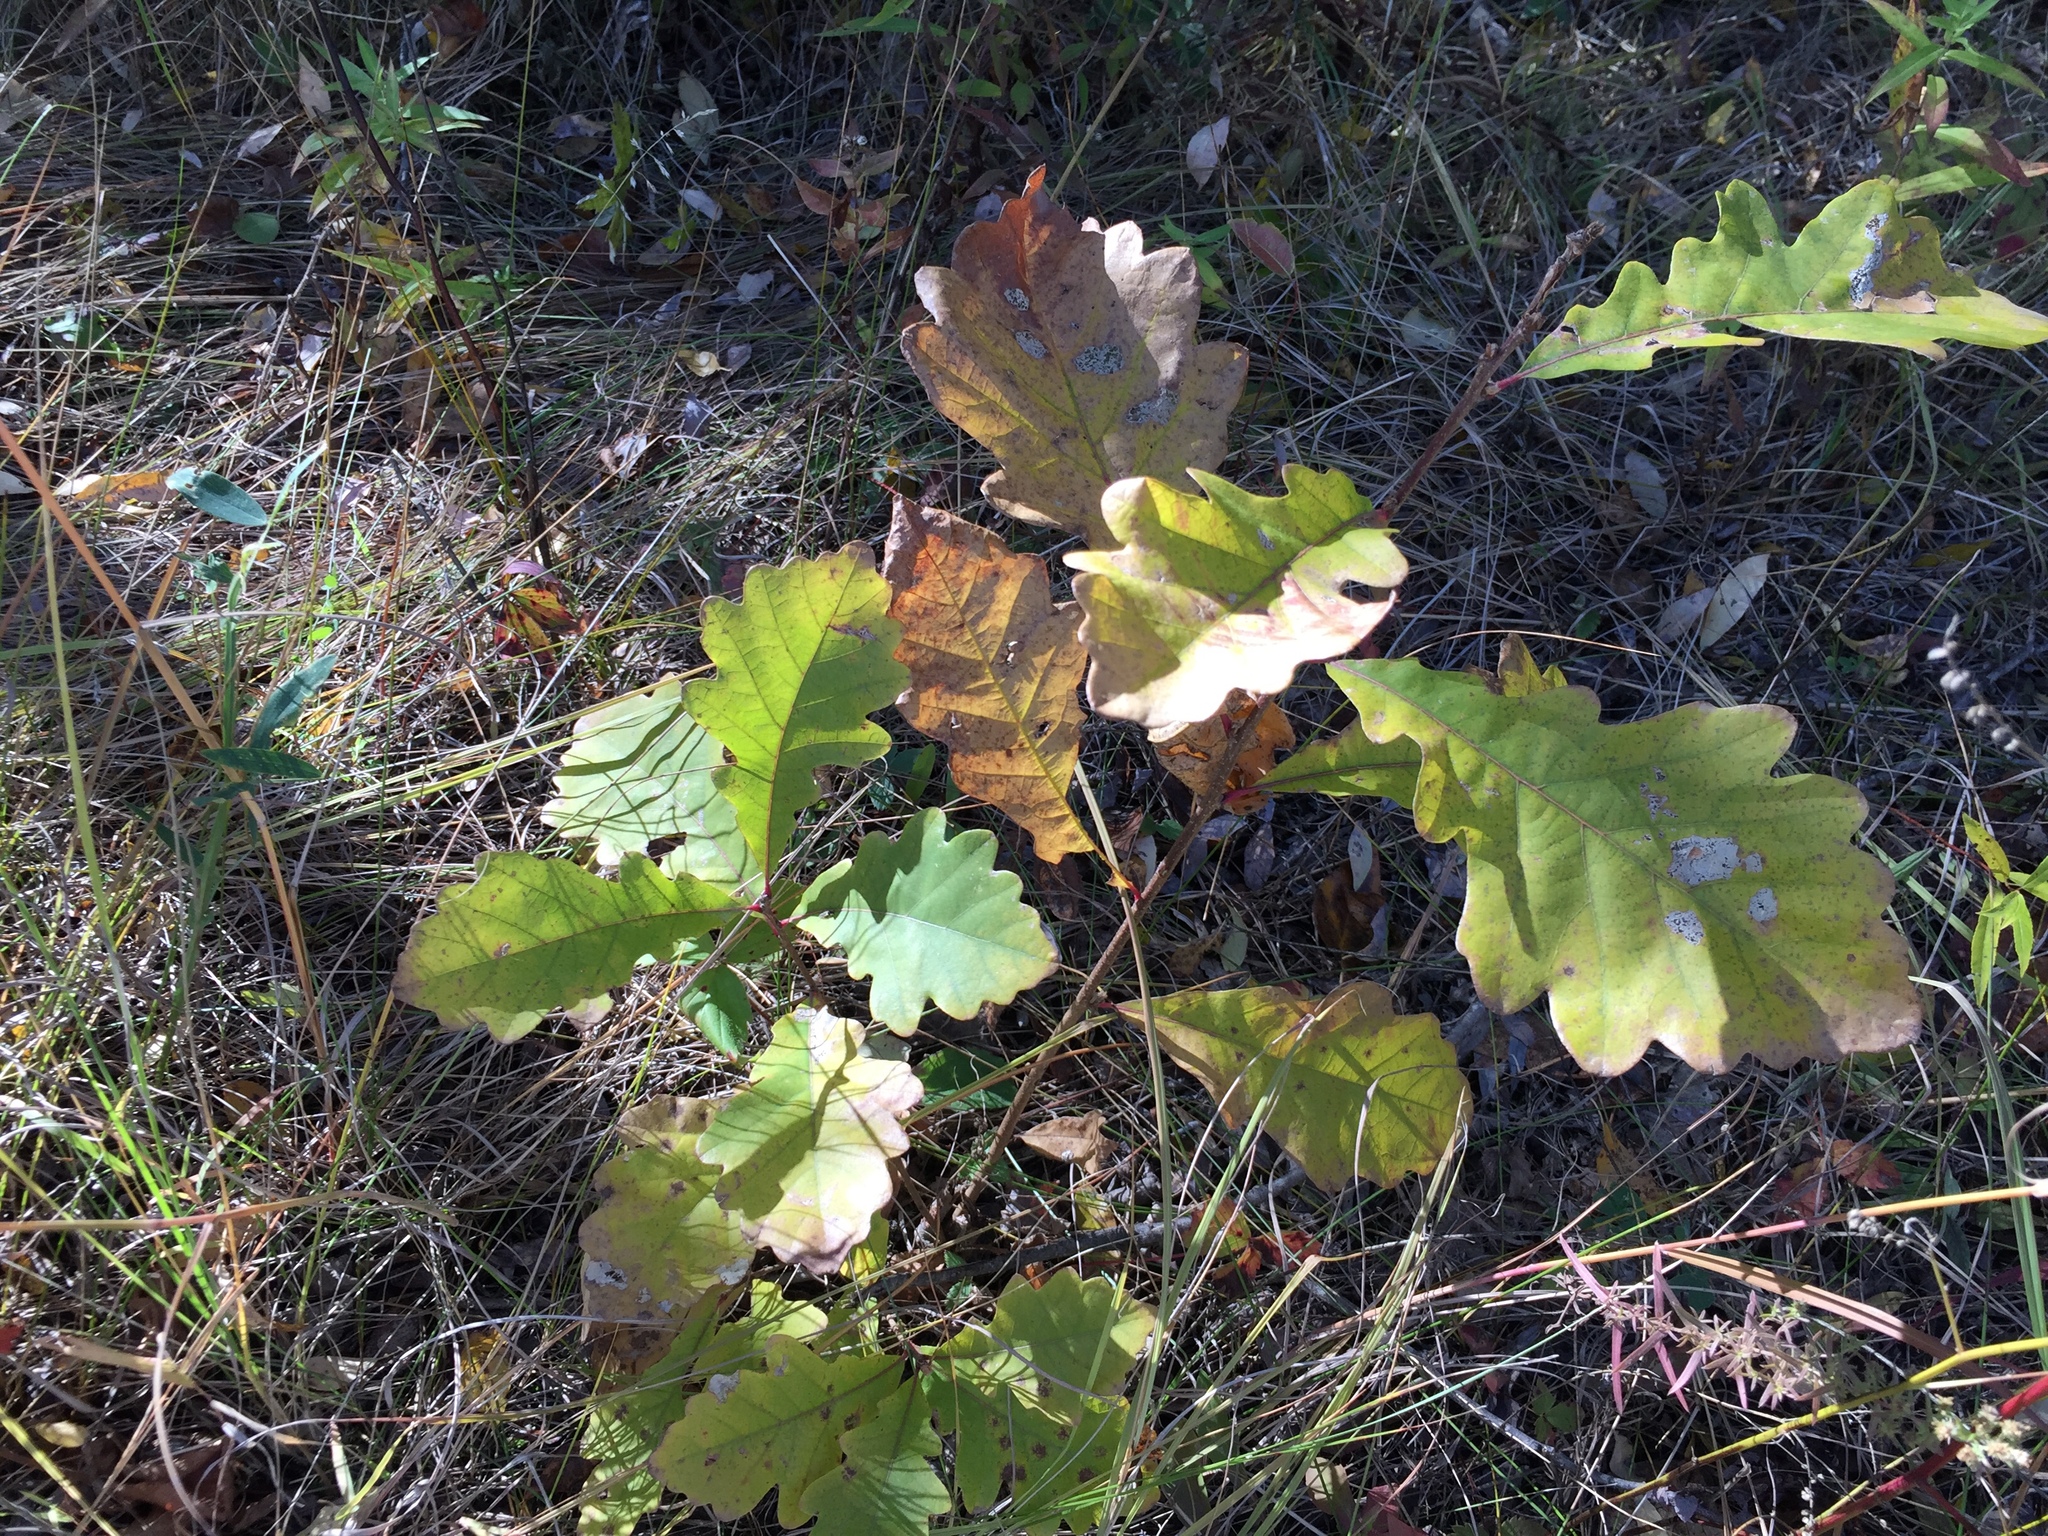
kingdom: Plantae
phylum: Tracheophyta
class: Magnoliopsida
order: Fagales
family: Fagaceae
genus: Quercus
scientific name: Quercus macrocarpa
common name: Bur oak
